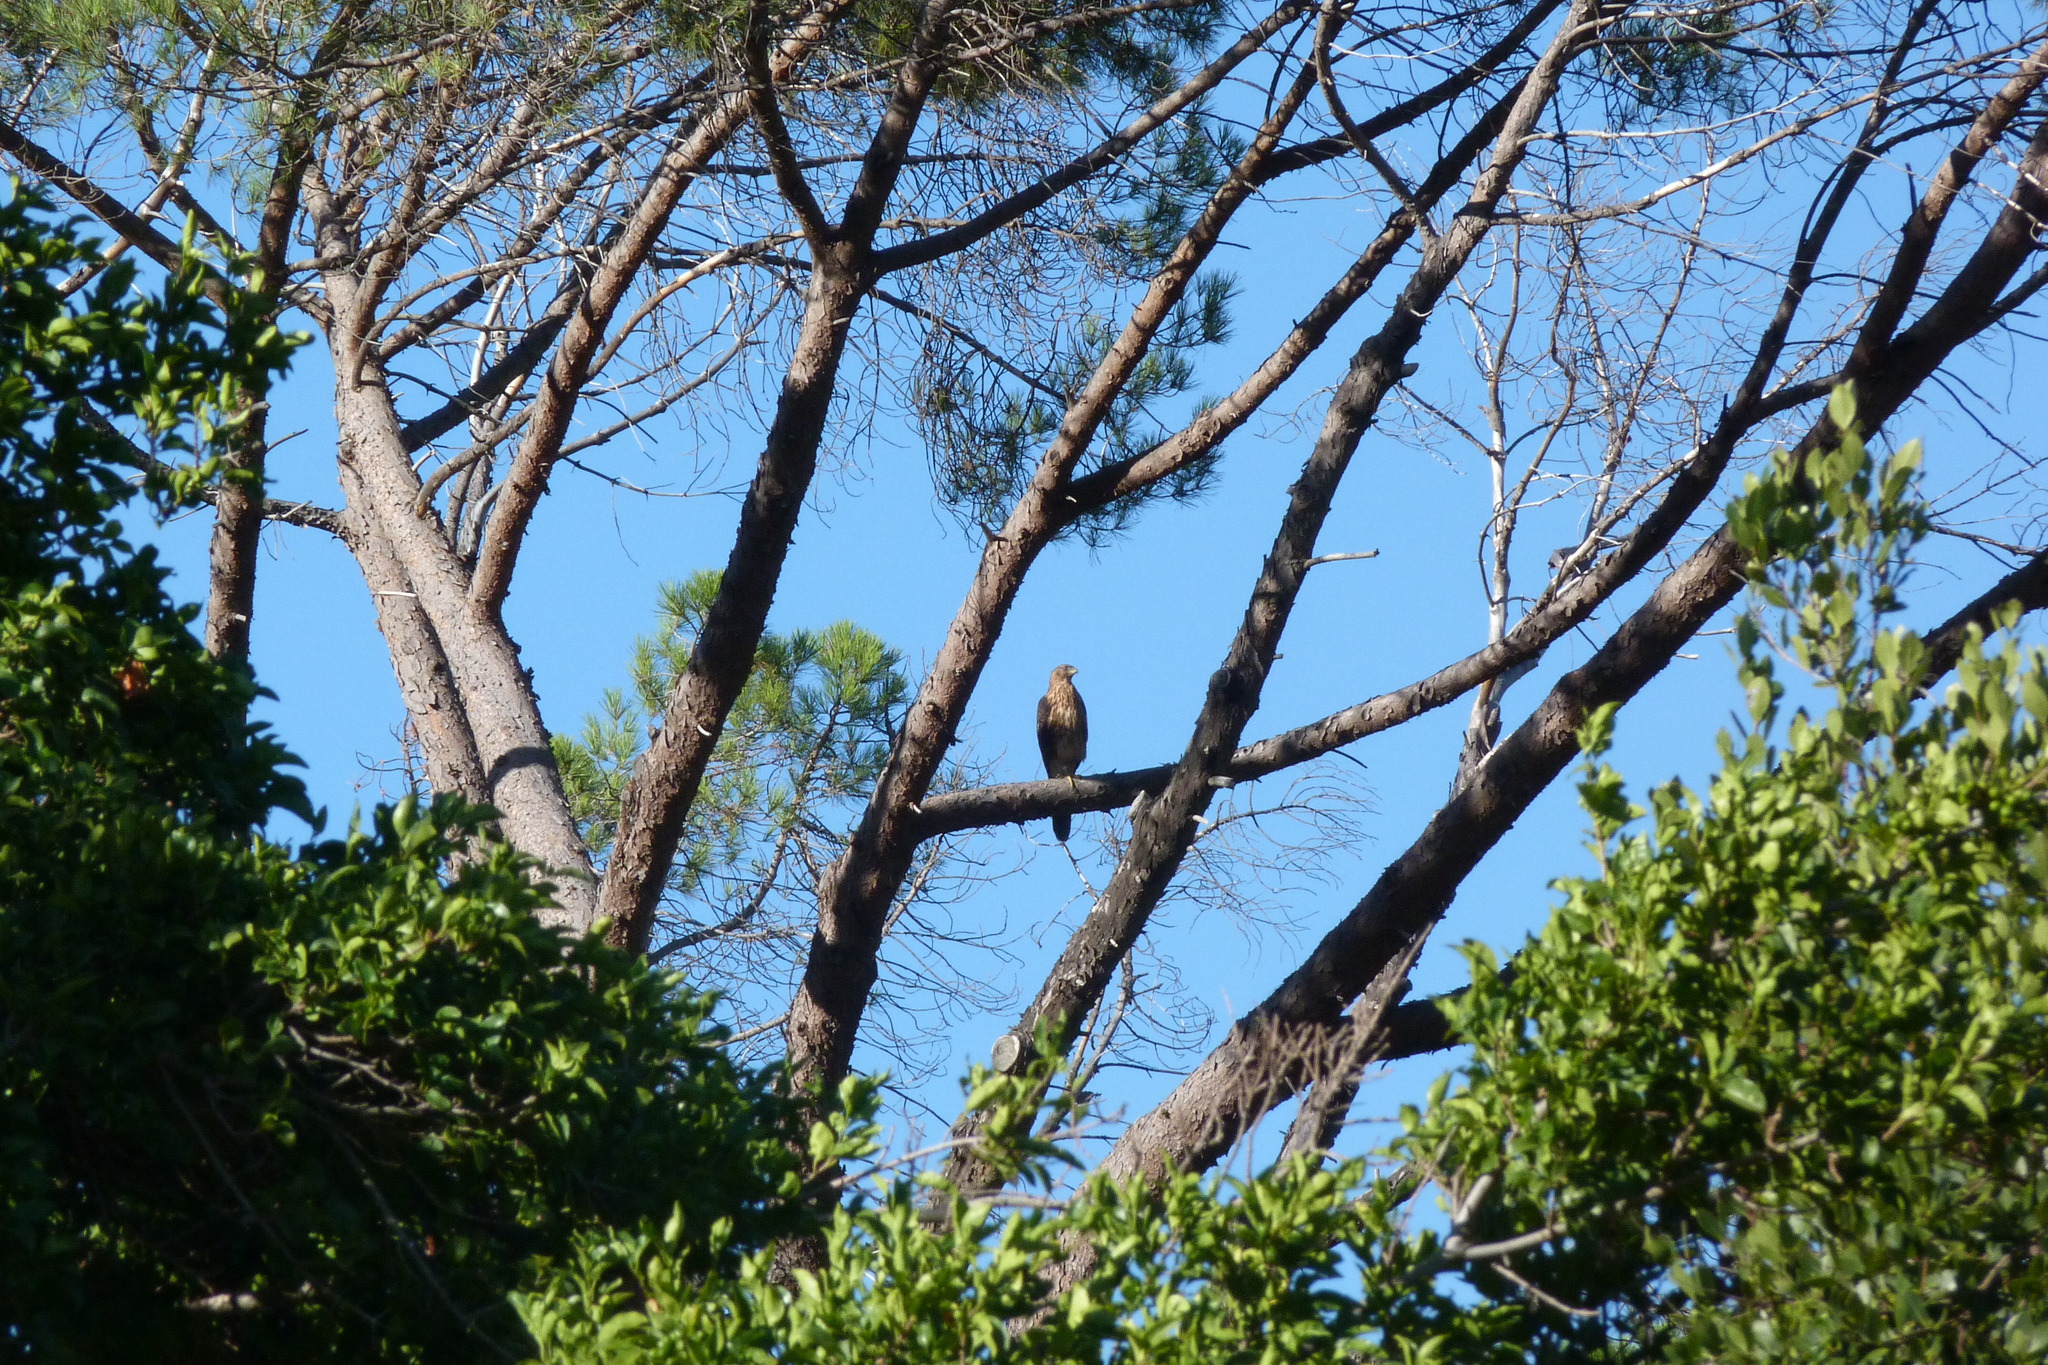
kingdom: Animalia
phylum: Chordata
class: Aves
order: Accipitriformes
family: Accipitridae
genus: Accipiter
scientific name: Accipiter melanoleucus
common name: Black sparrowhawk
